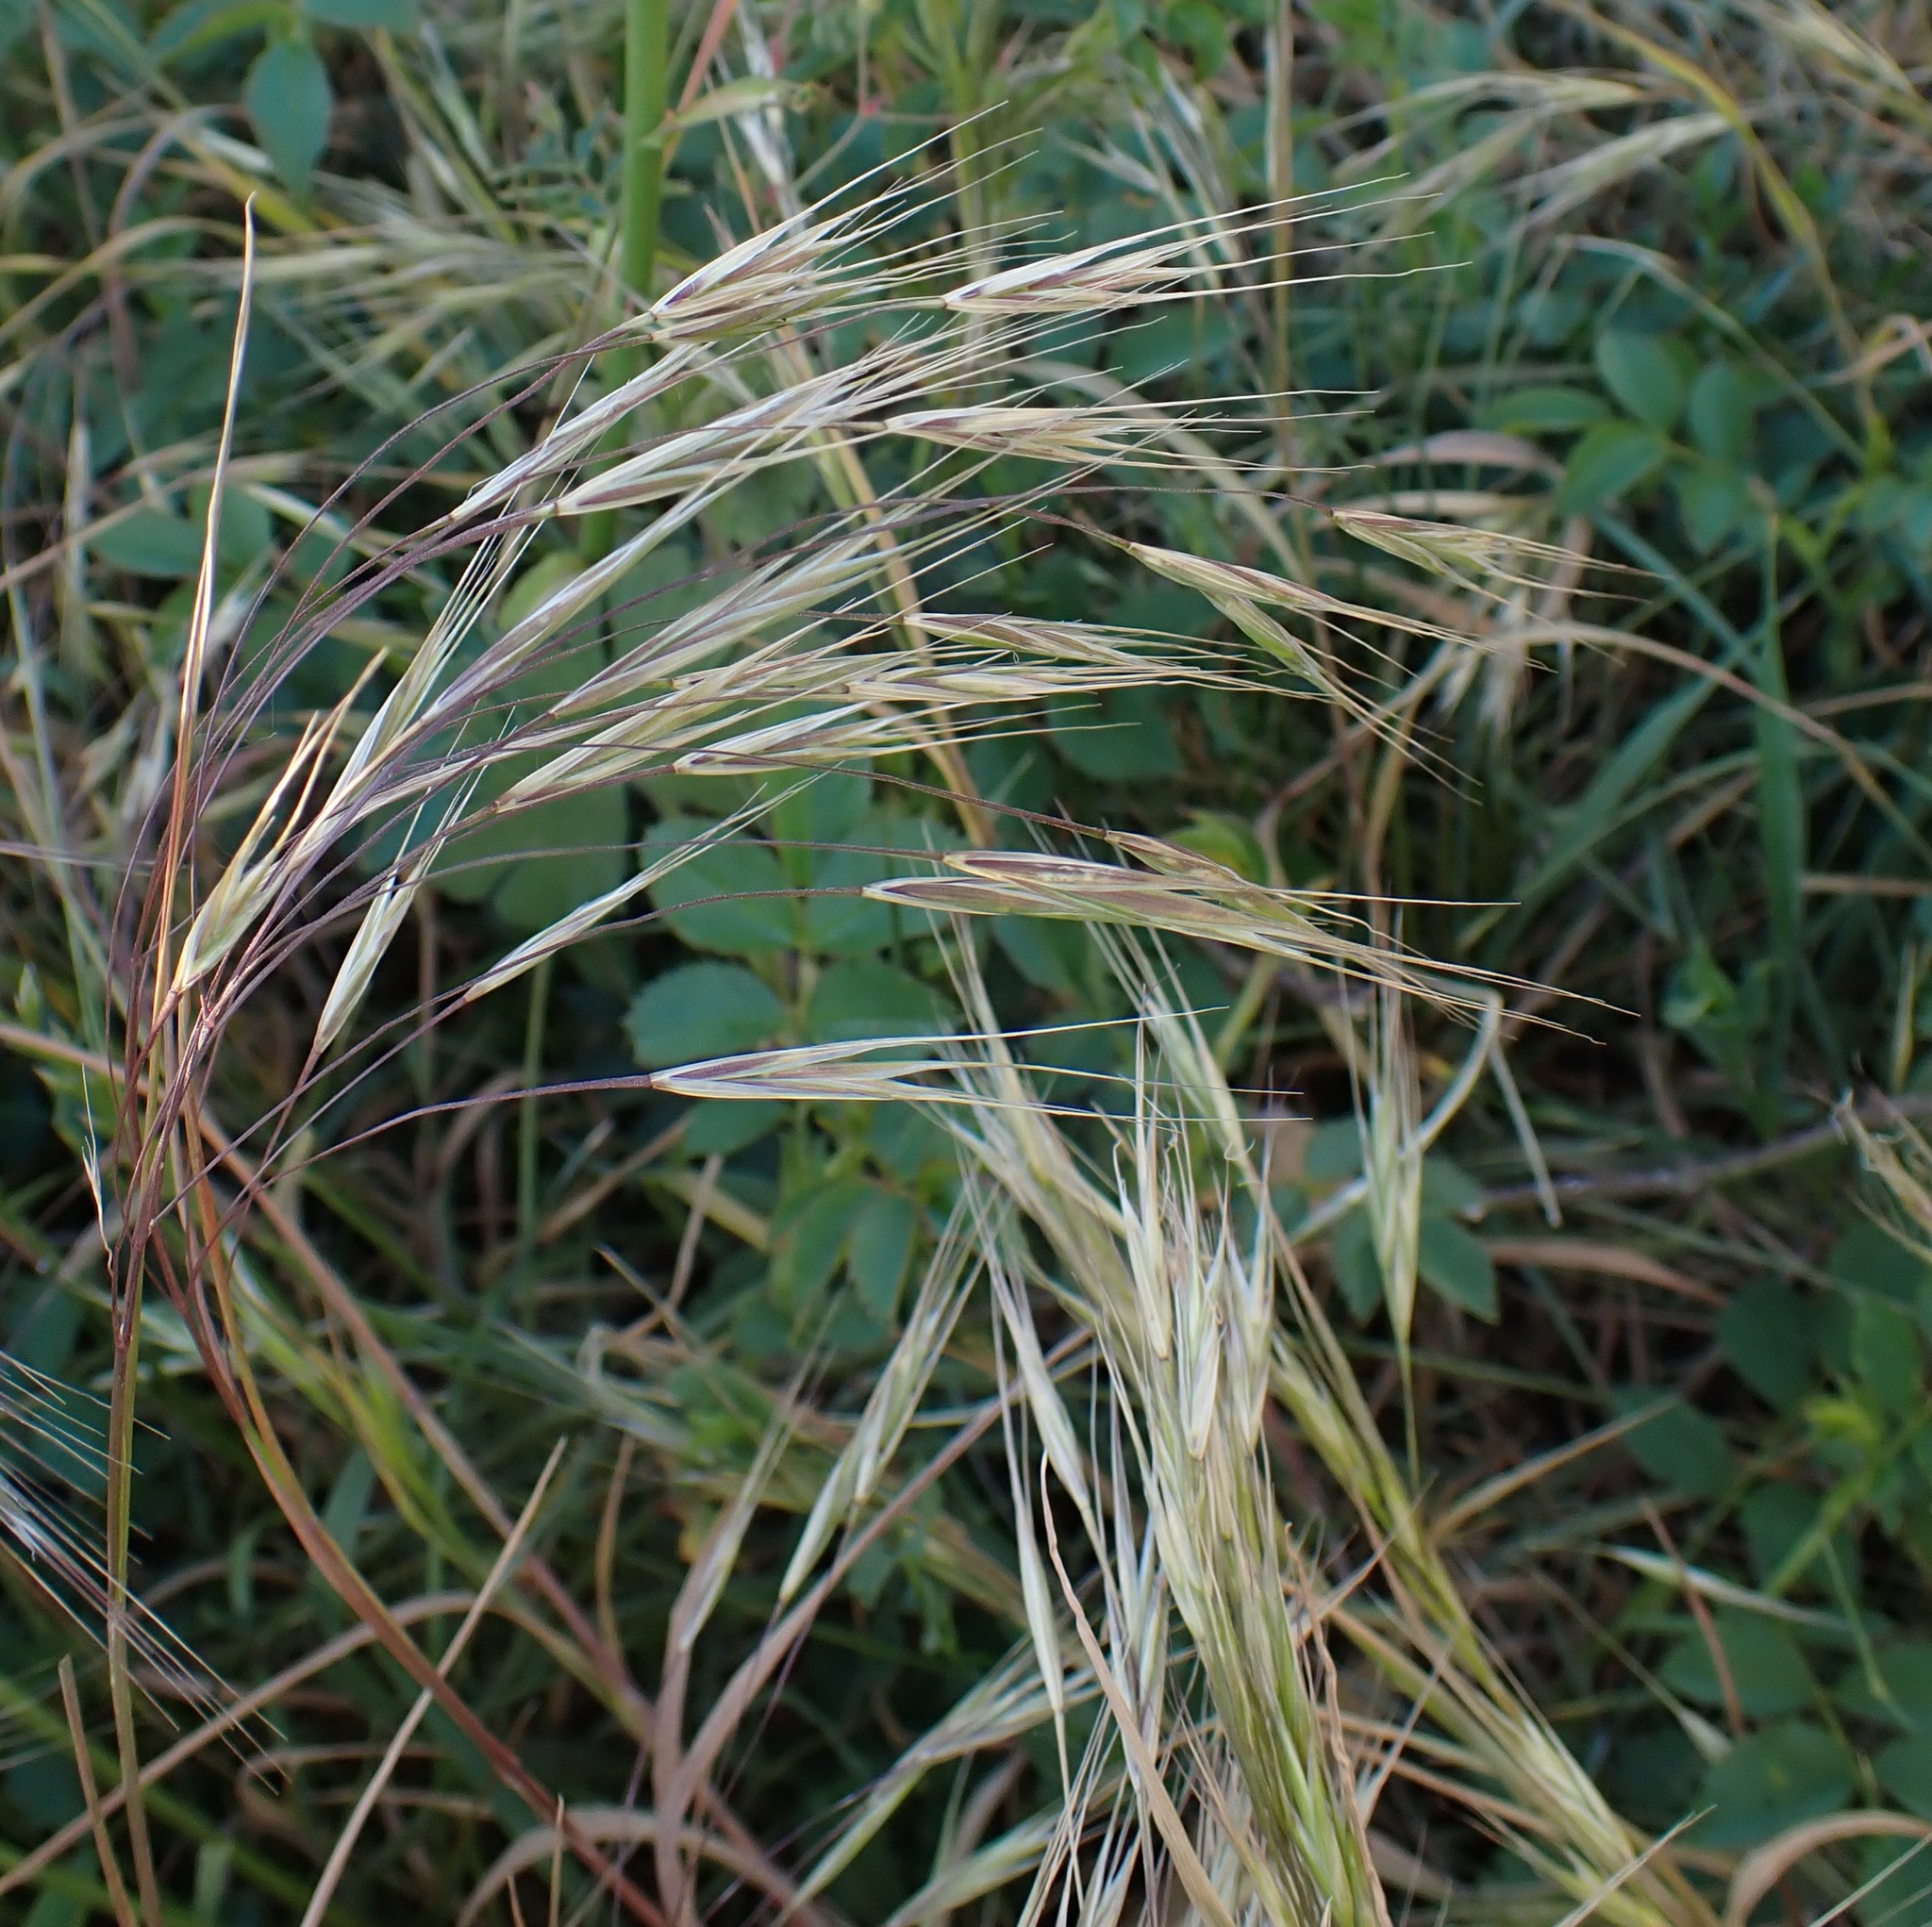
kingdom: Plantae
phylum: Tracheophyta
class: Liliopsida
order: Poales
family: Poaceae
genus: Bromus
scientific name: Bromus sterilis
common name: Poverty brome
